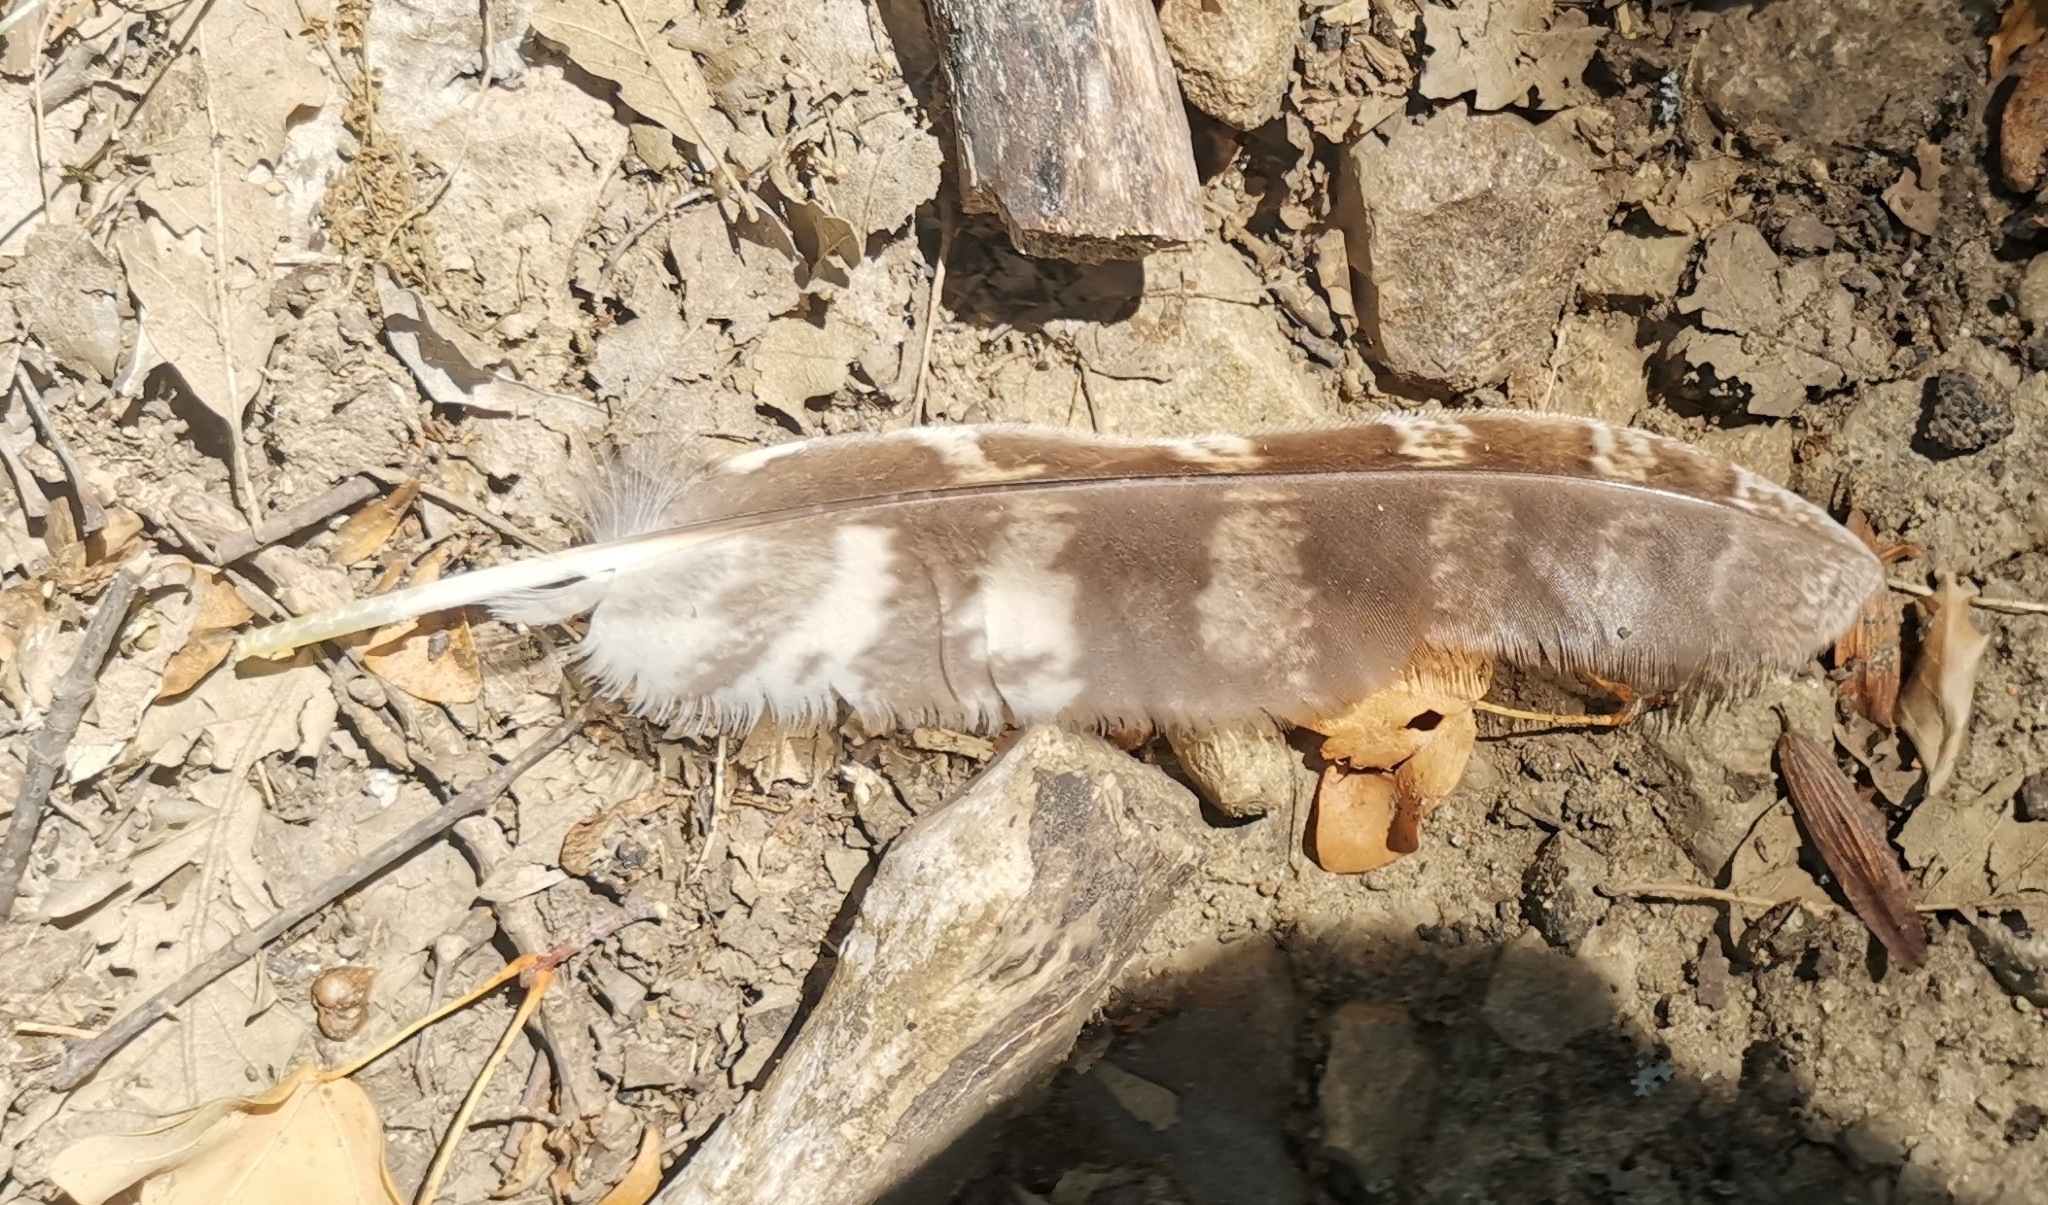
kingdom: Animalia
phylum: Chordata
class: Aves
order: Strigiformes
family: Strigidae
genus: Strix
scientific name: Strix aluco
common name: Tawny owl
